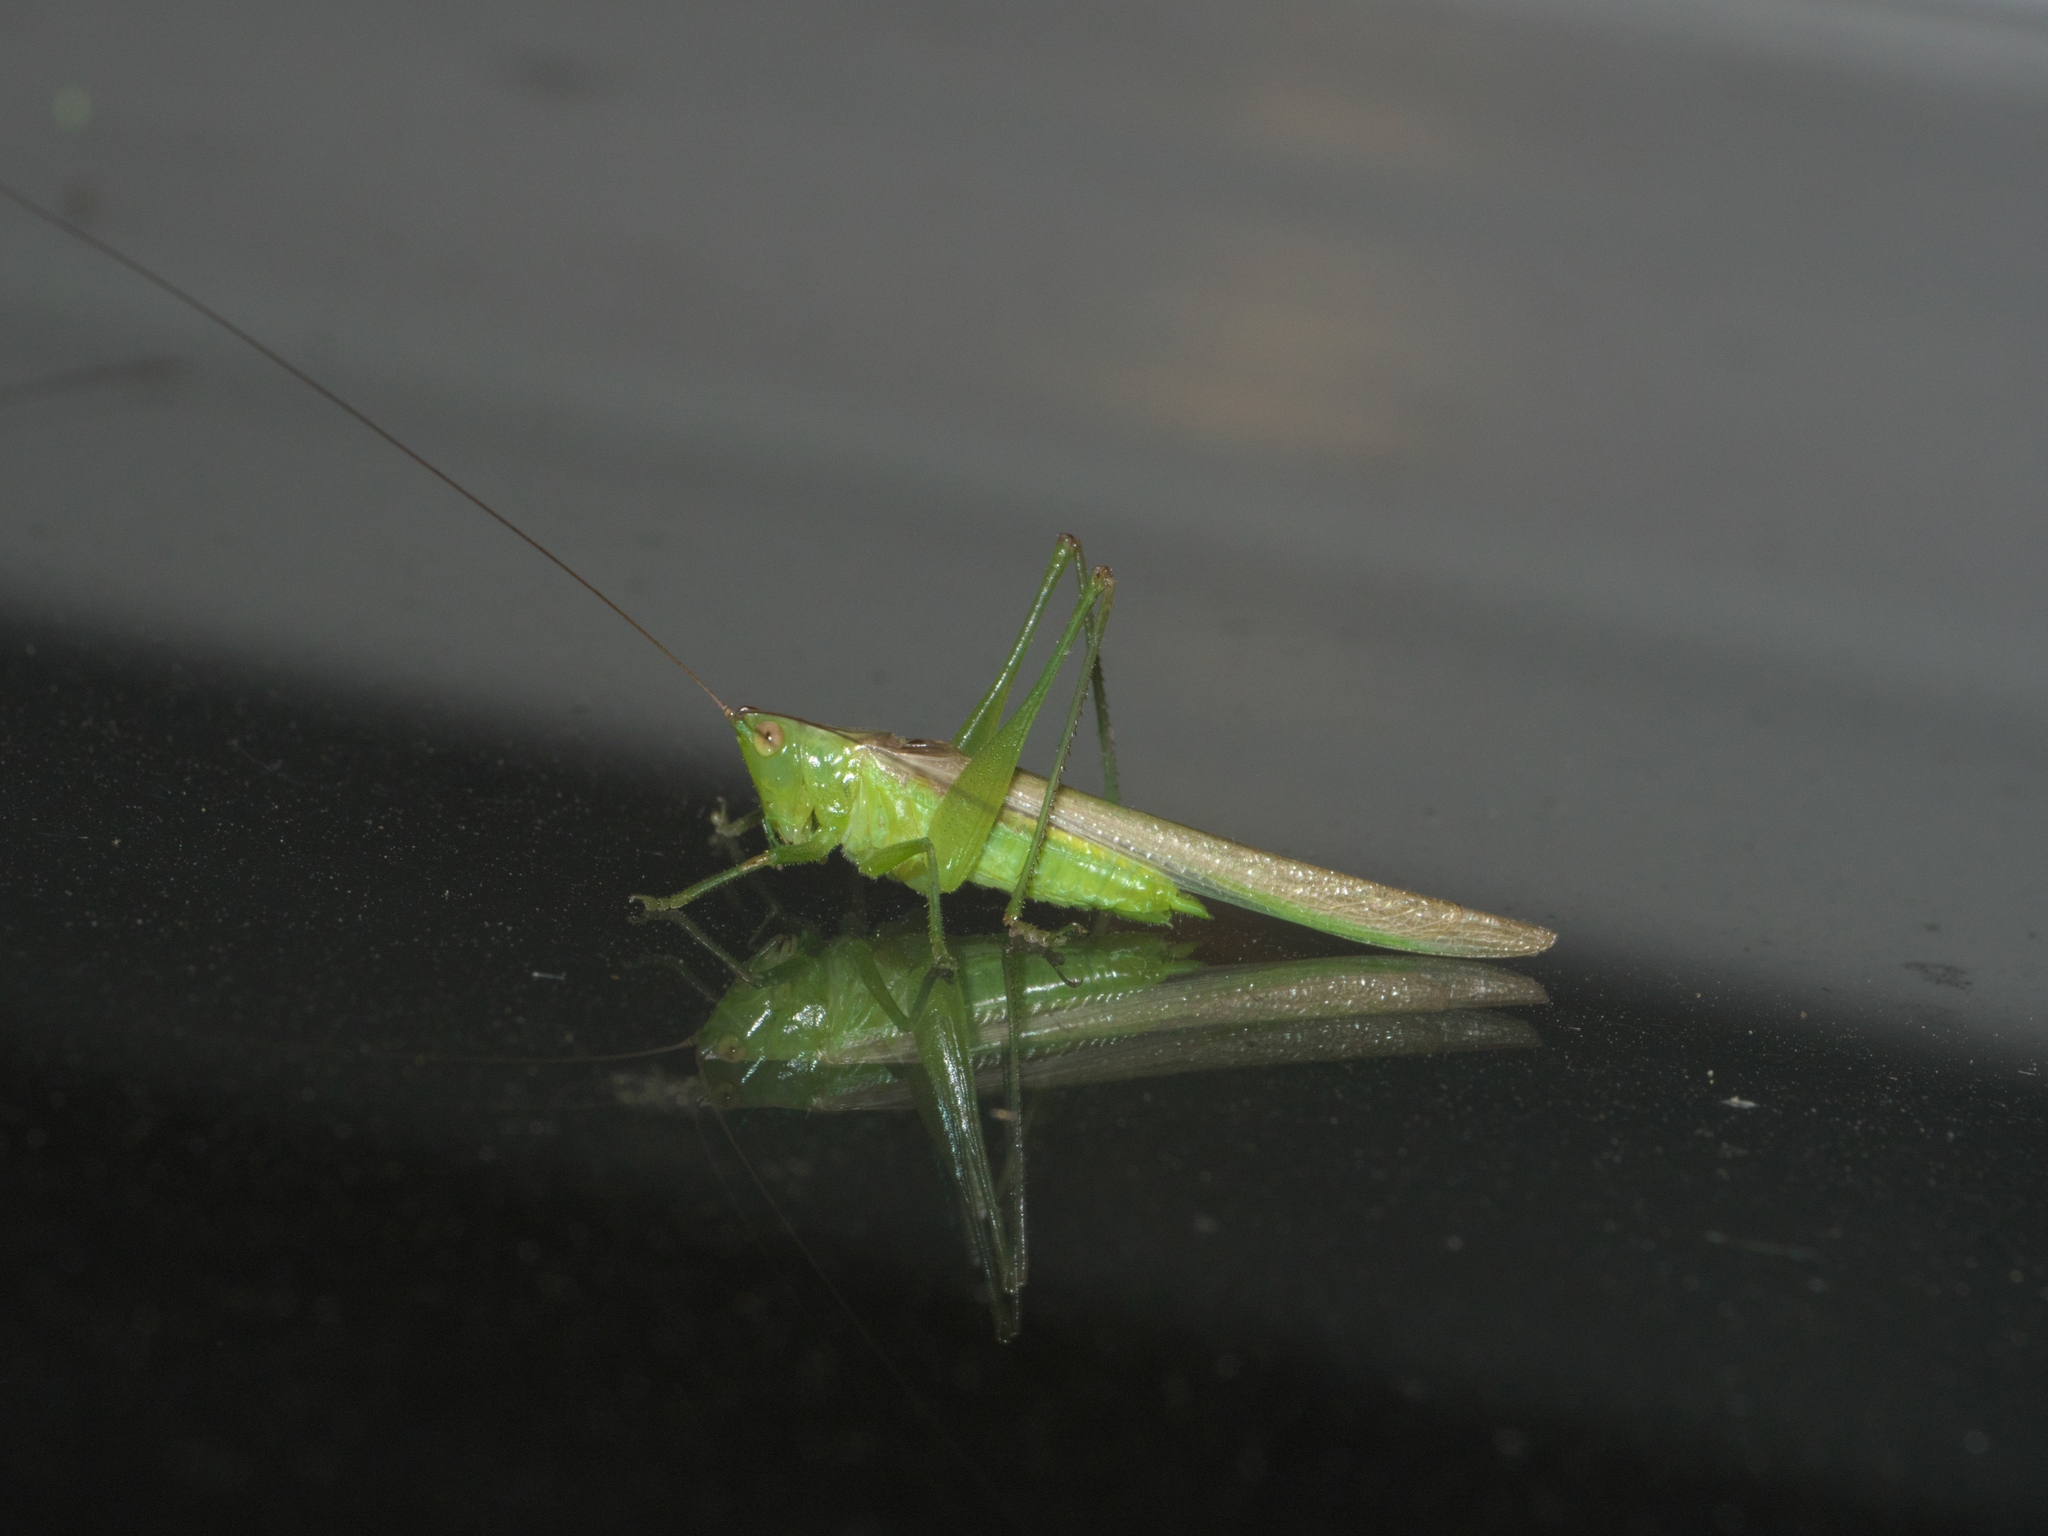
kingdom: Animalia
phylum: Arthropoda
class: Insecta
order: Orthoptera
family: Tettigoniidae
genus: Conocephalus
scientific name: Conocephalus fasciatus
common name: Slender meadow katydid
